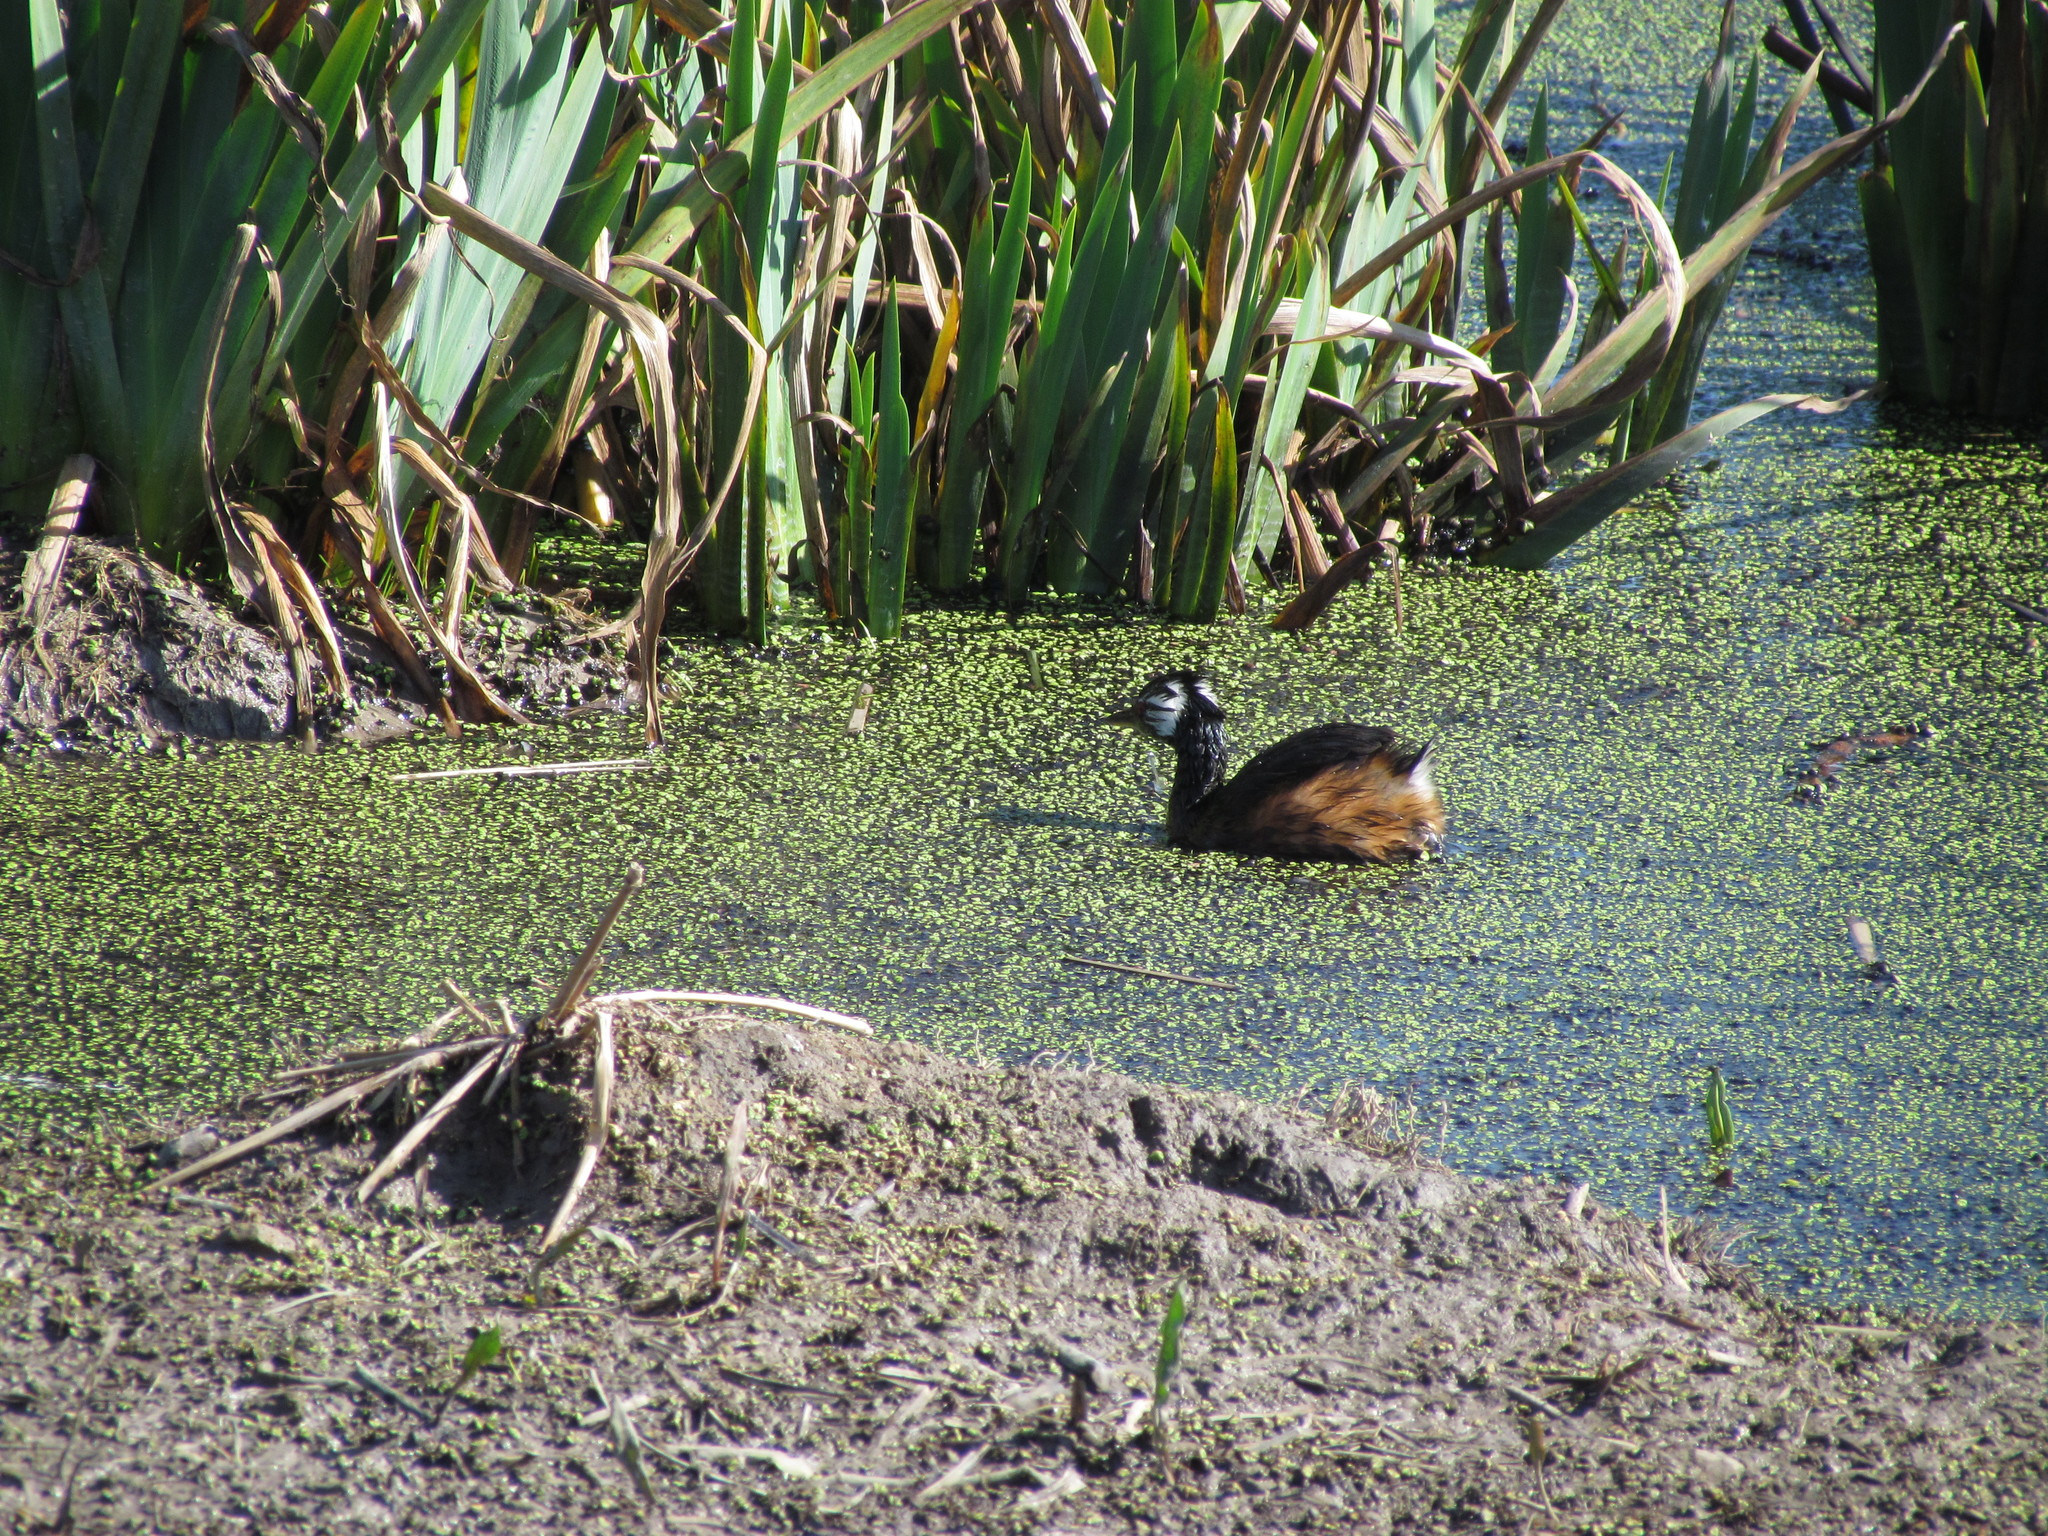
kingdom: Animalia
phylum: Chordata
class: Aves
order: Podicipediformes
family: Podicipedidae
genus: Rollandia
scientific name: Rollandia rolland
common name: White-tufted grebe
